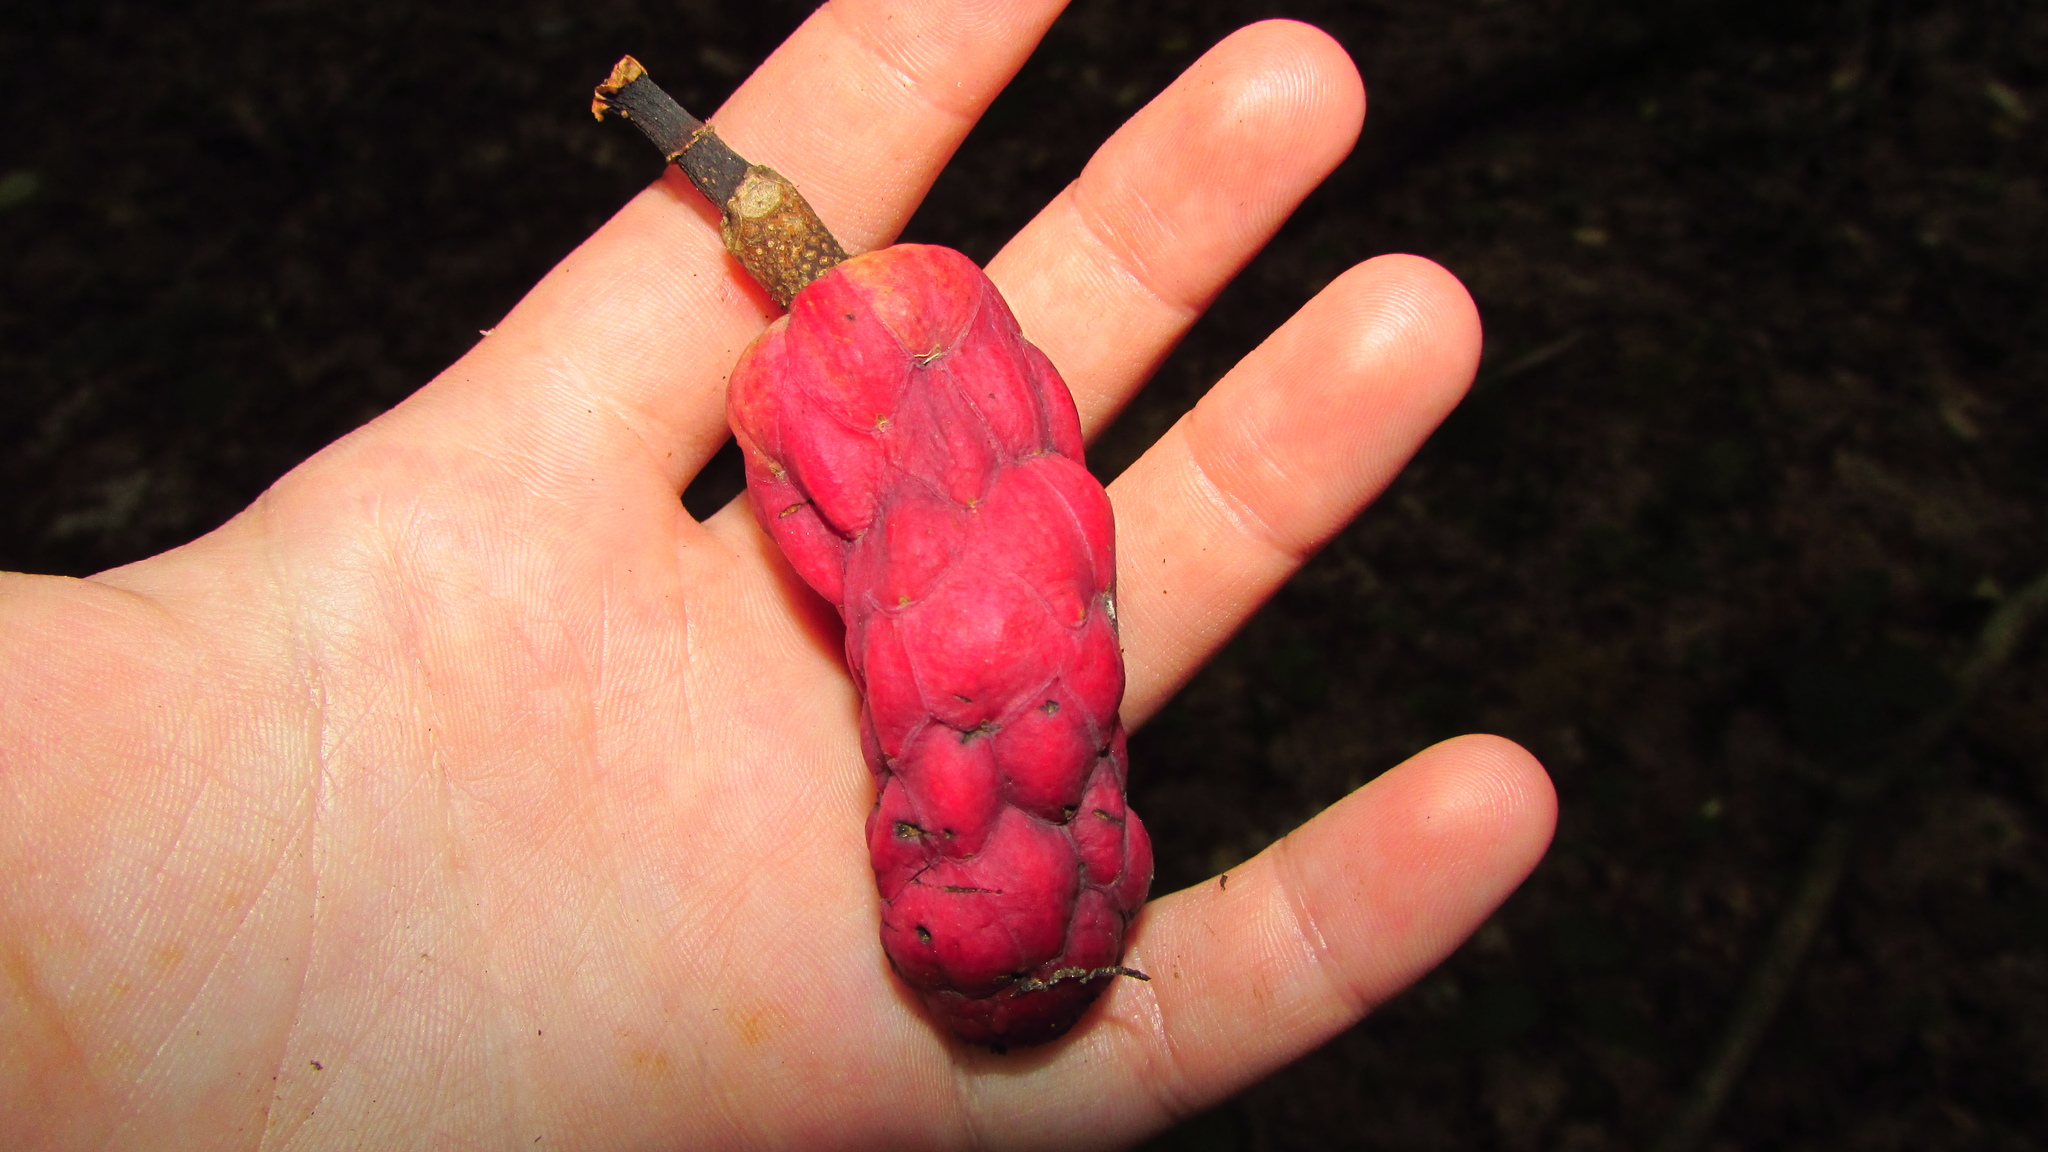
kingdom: Plantae
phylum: Tracheophyta
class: Magnoliopsida
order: Magnoliales
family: Magnoliaceae
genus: Magnolia
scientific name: Magnolia acuminata
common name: Cucumber magnolia
